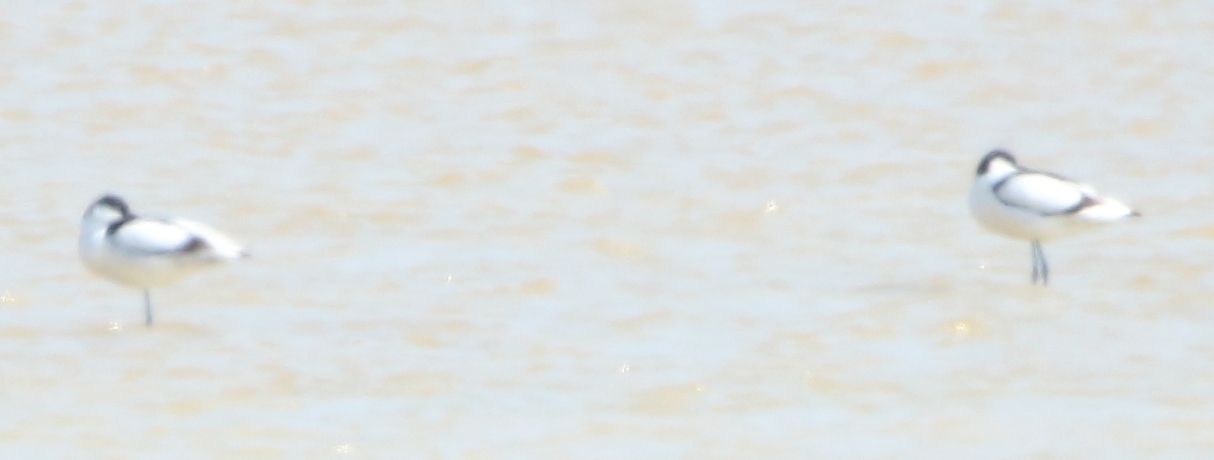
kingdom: Animalia
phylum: Chordata
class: Aves
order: Charadriiformes
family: Recurvirostridae
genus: Recurvirostra
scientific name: Recurvirostra avosetta
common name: Pied avocet
